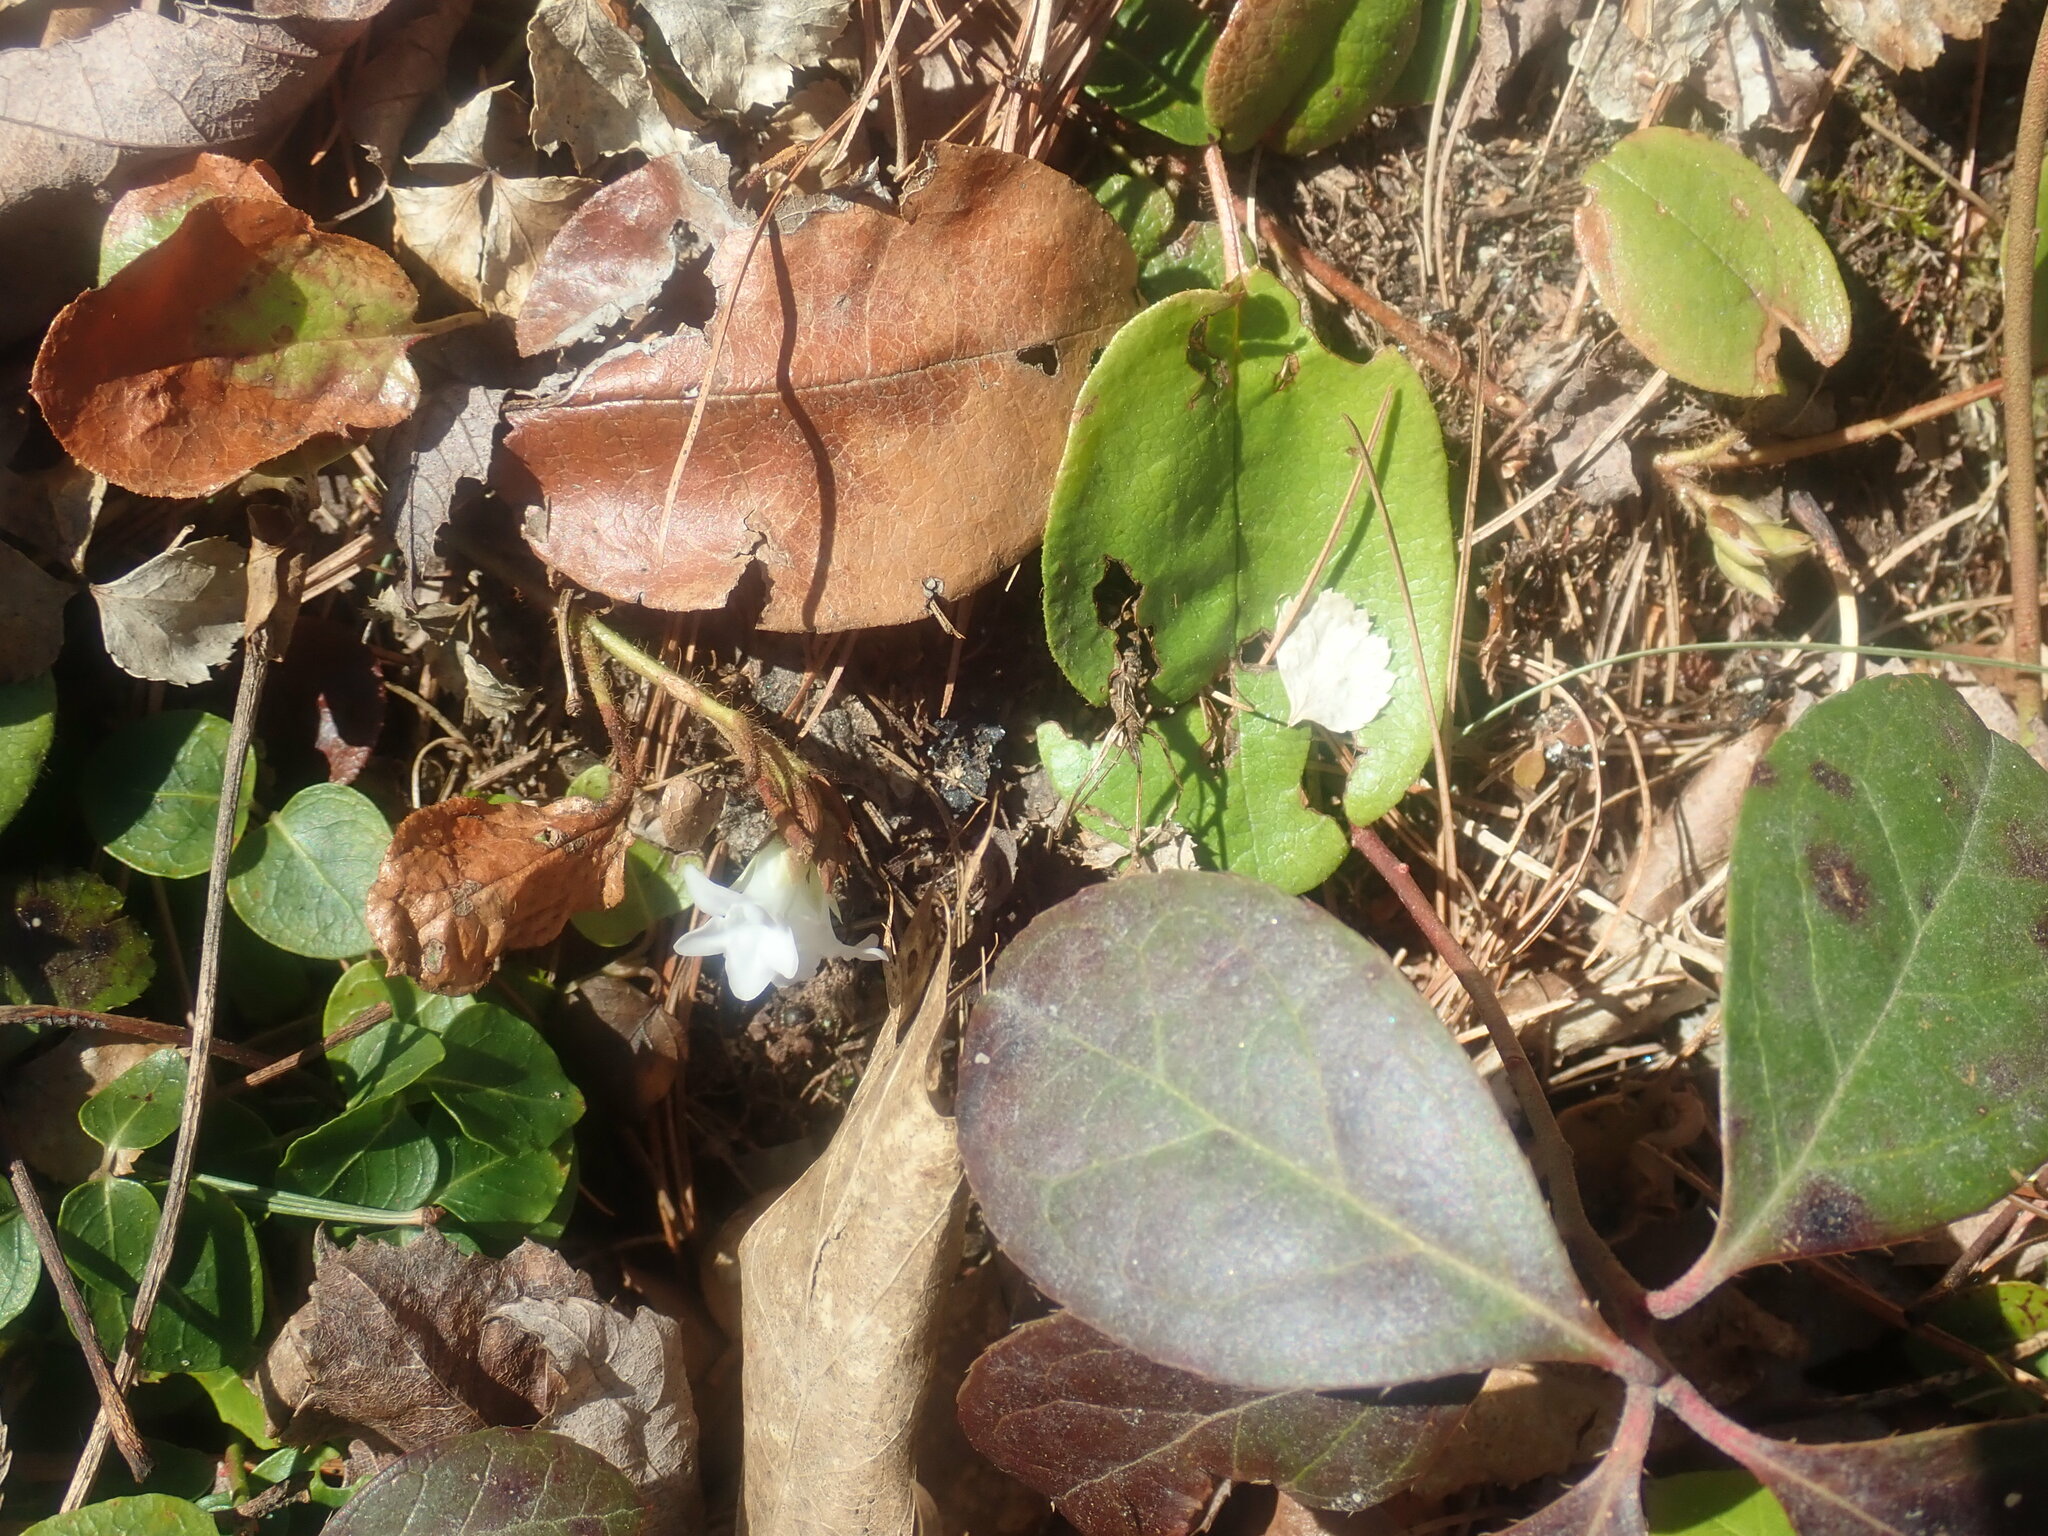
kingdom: Plantae
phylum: Tracheophyta
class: Magnoliopsida
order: Ericales
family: Ericaceae
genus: Epigaea
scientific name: Epigaea repens
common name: Gravelroot
